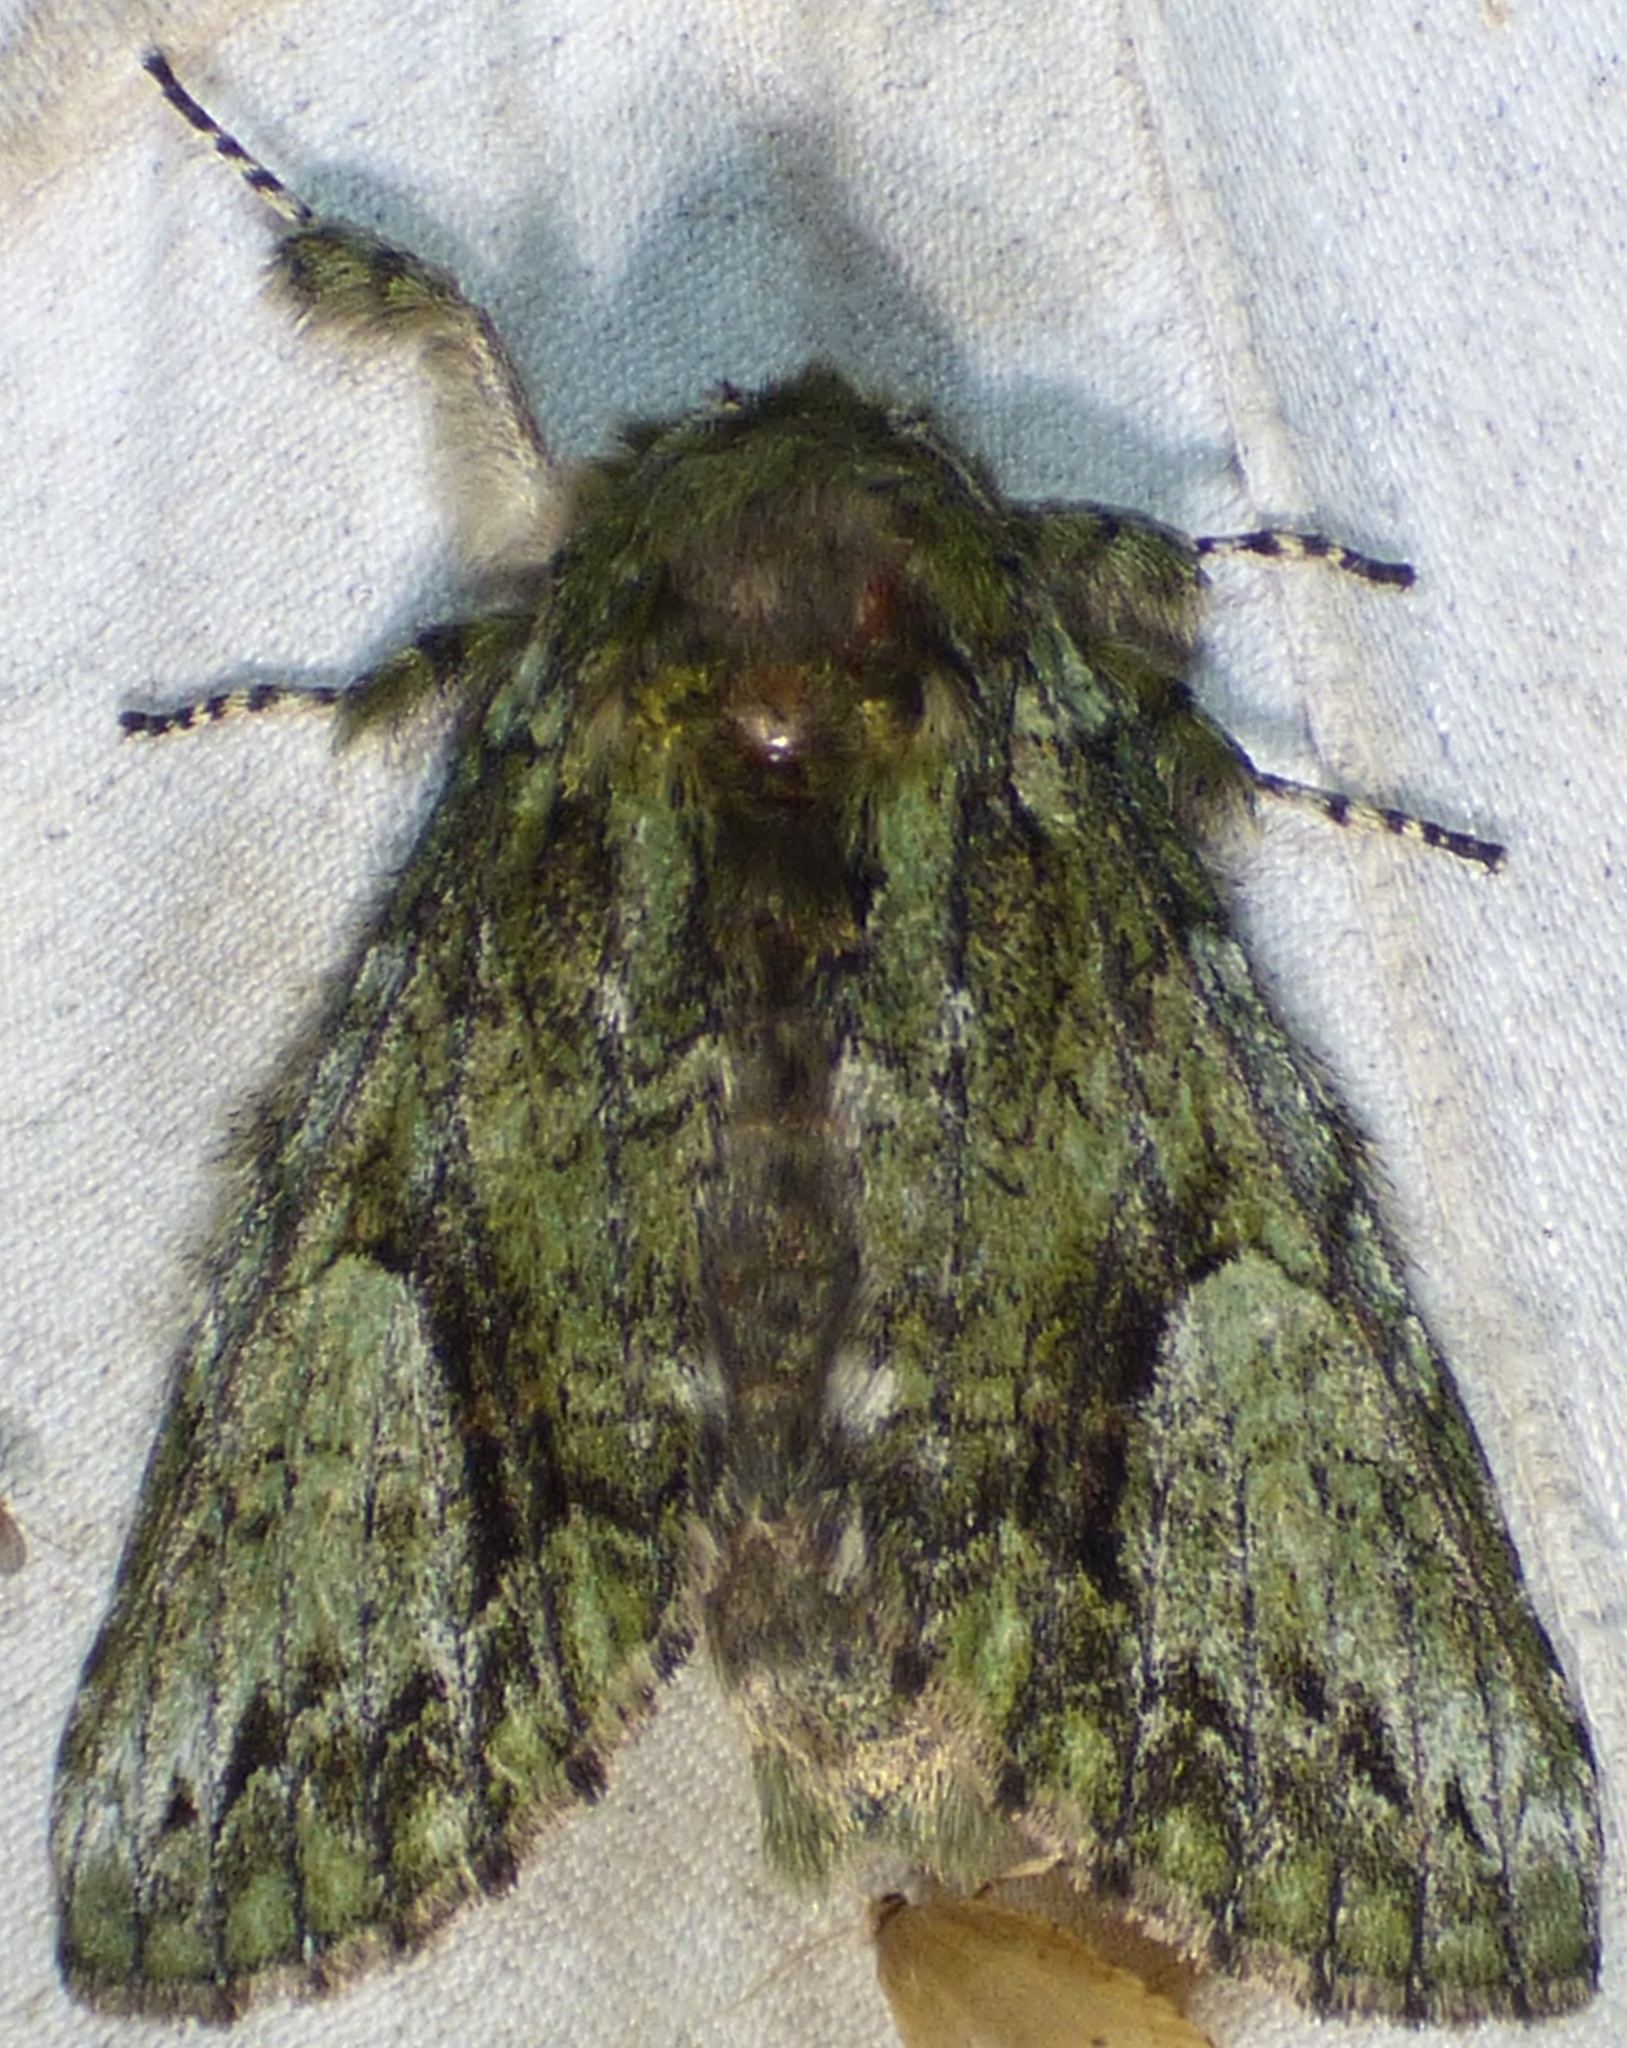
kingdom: Animalia
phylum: Arthropoda
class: Insecta
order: Lepidoptera
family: Notodontidae
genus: Heterocampa
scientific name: Heterocampa
